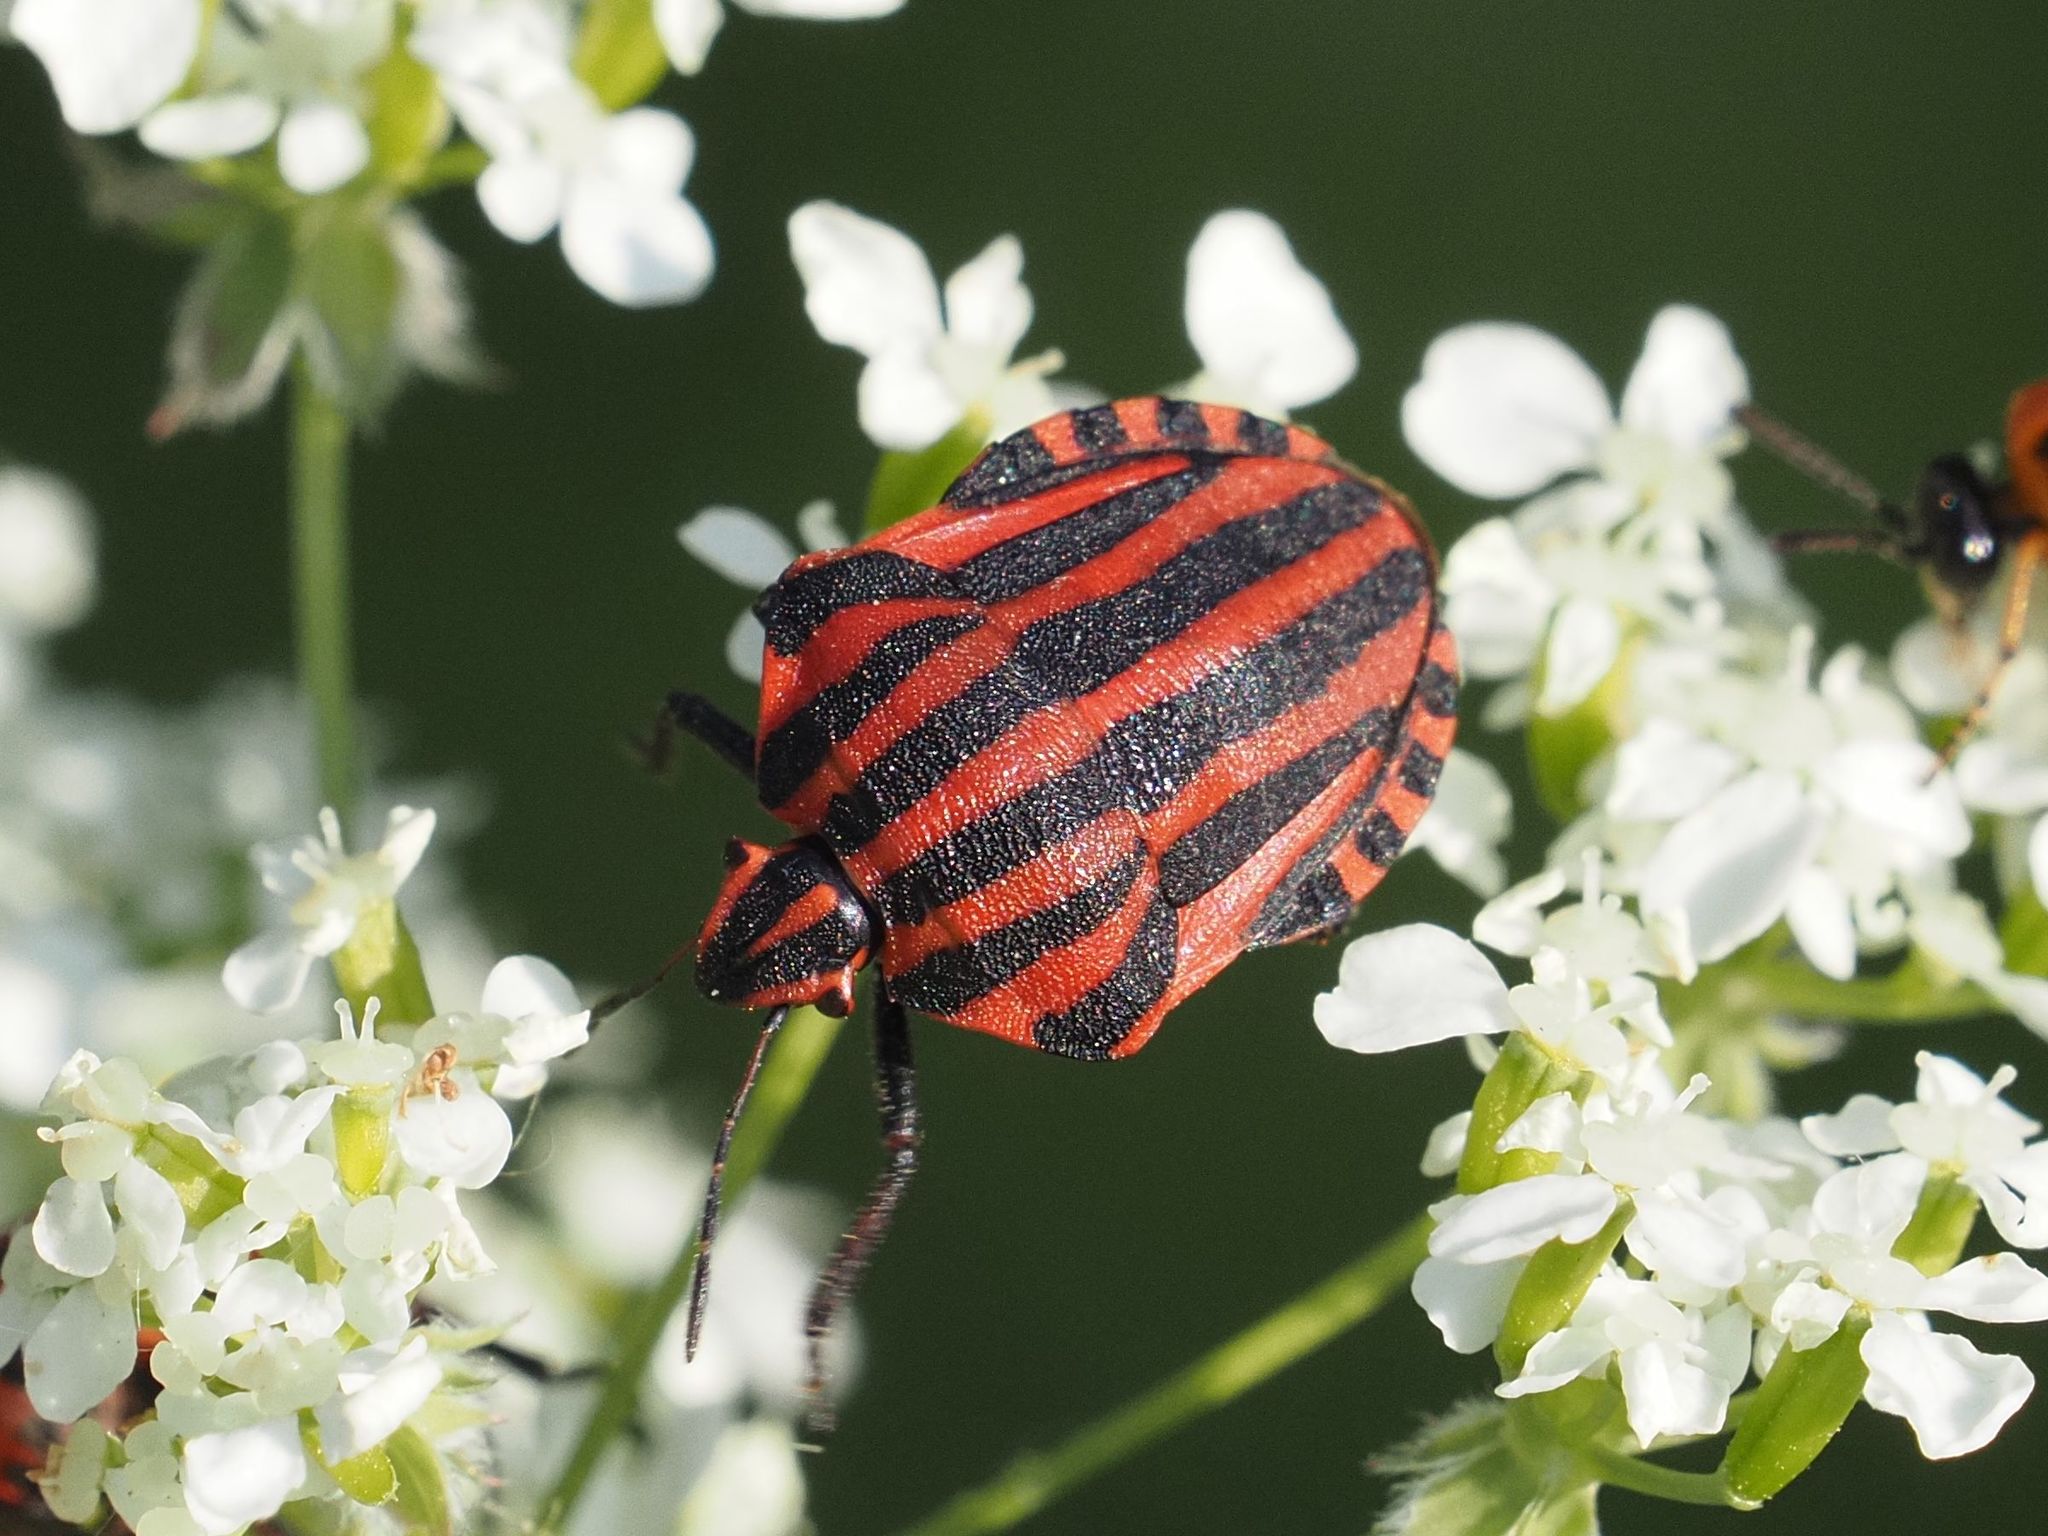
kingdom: Animalia
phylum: Arthropoda
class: Insecta
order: Hemiptera
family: Pentatomidae
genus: Graphosoma
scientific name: Graphosoma italicum
